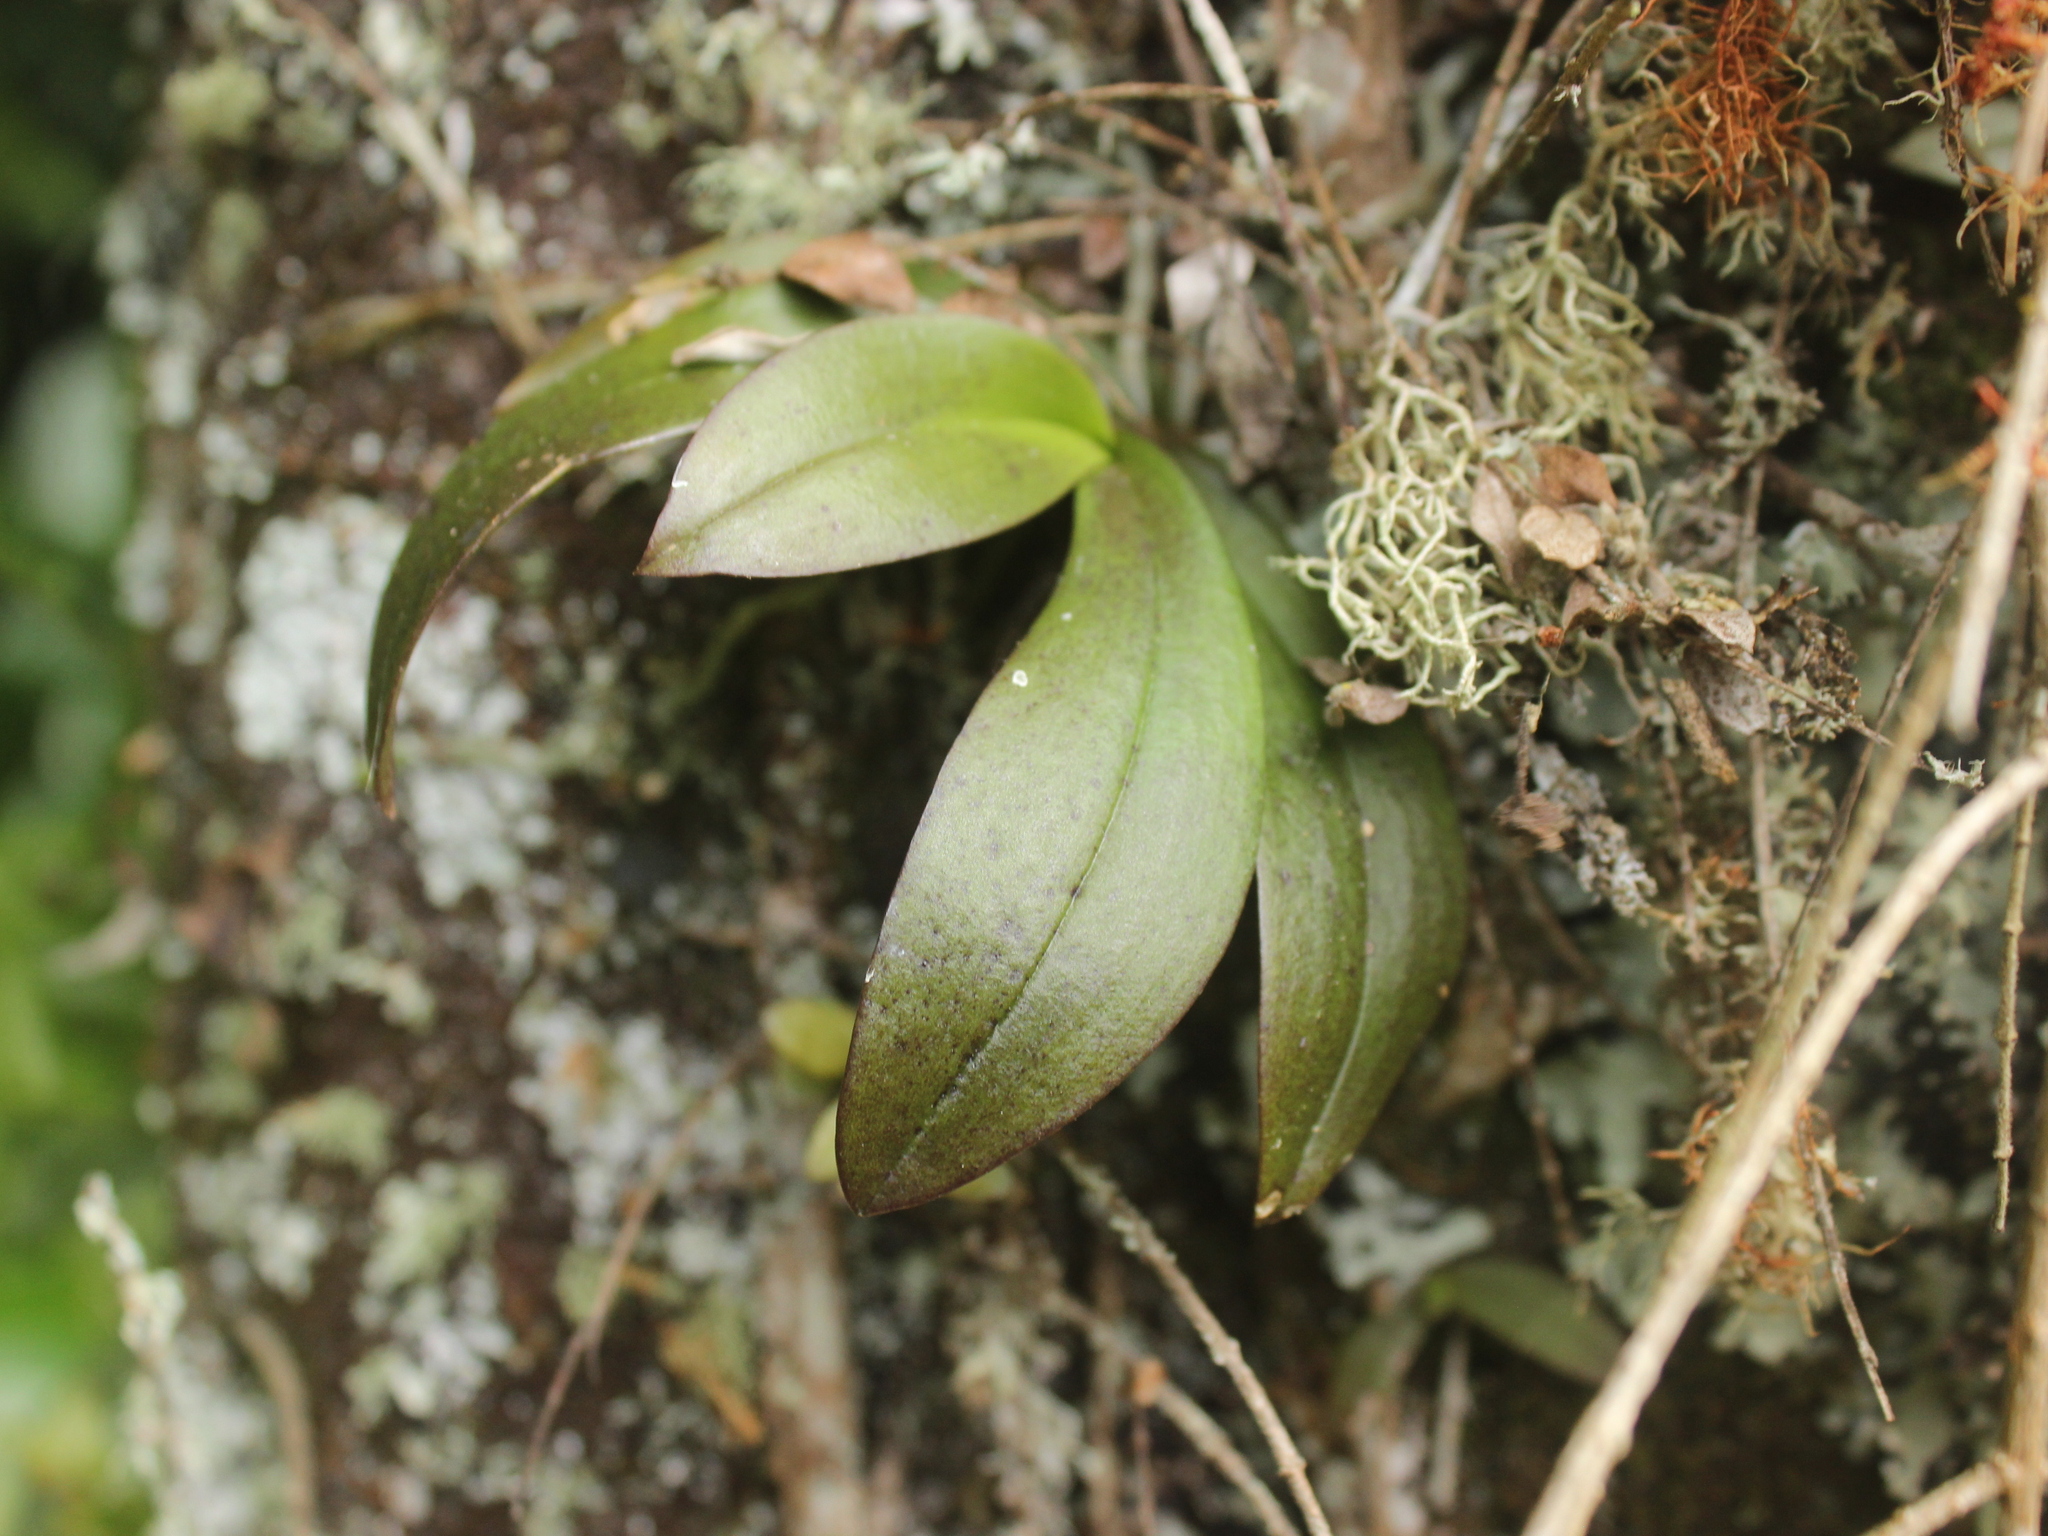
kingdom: Plantae
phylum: Tracheophyta
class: Liliopsida
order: Asparagales
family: Orchidaceae
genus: Drymoanthus
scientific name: Drymoanthus adversus
